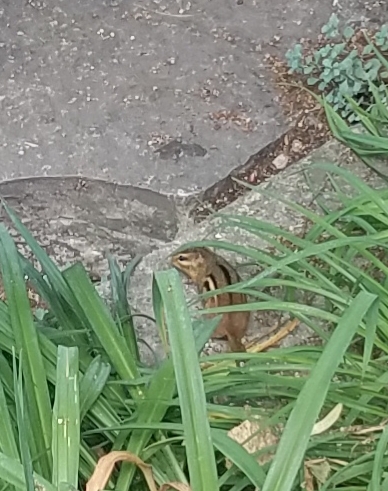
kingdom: Animalia
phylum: Chordata
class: Mammalia
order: Rodentia
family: Sciuridae
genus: Tamias
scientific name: Tamias striatus
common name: Eastern chipmunk
